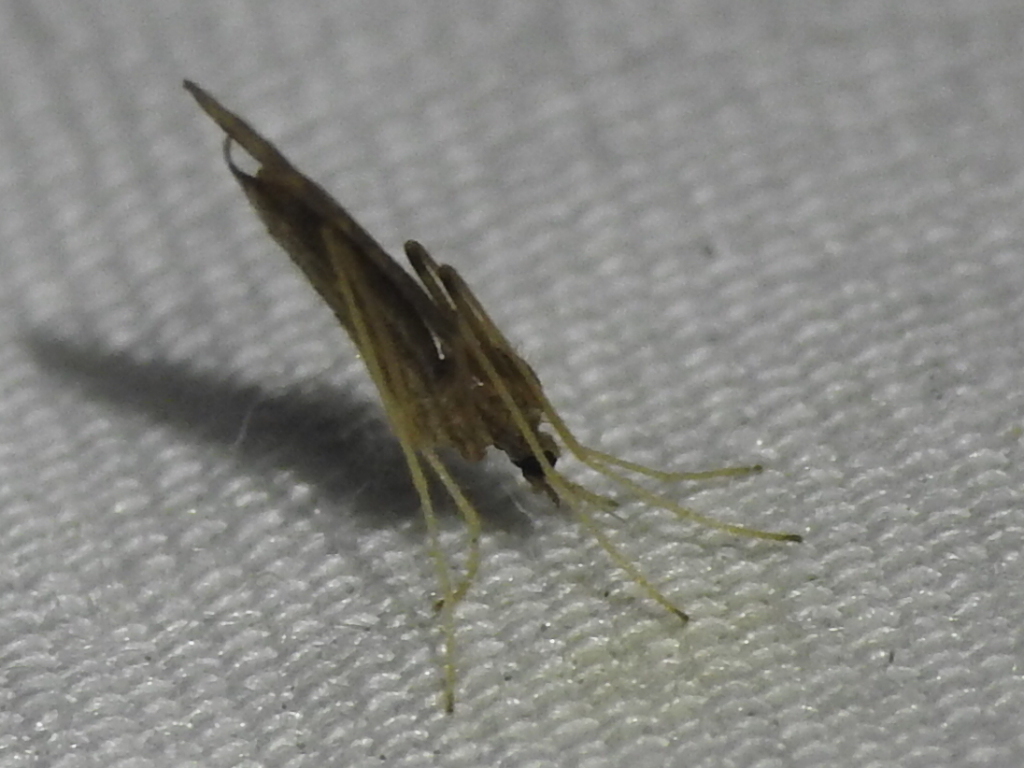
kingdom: Animalia
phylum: Arthropoda
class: Insecta
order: Diptera
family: Limoniidae
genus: Erioptera
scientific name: Erioptera tantilla
